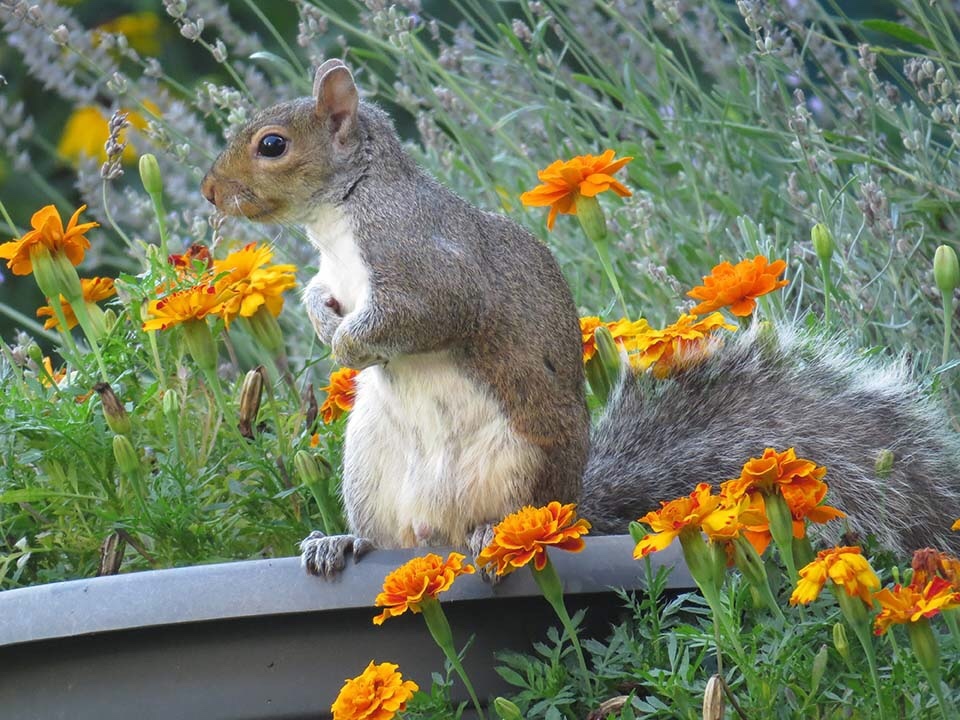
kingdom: Animalia
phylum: Chordata
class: Mammalia
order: Rodentia
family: Sciuridae
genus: Sciurus
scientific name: Sciurus carolinensis
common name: Eastern gray squirrel
